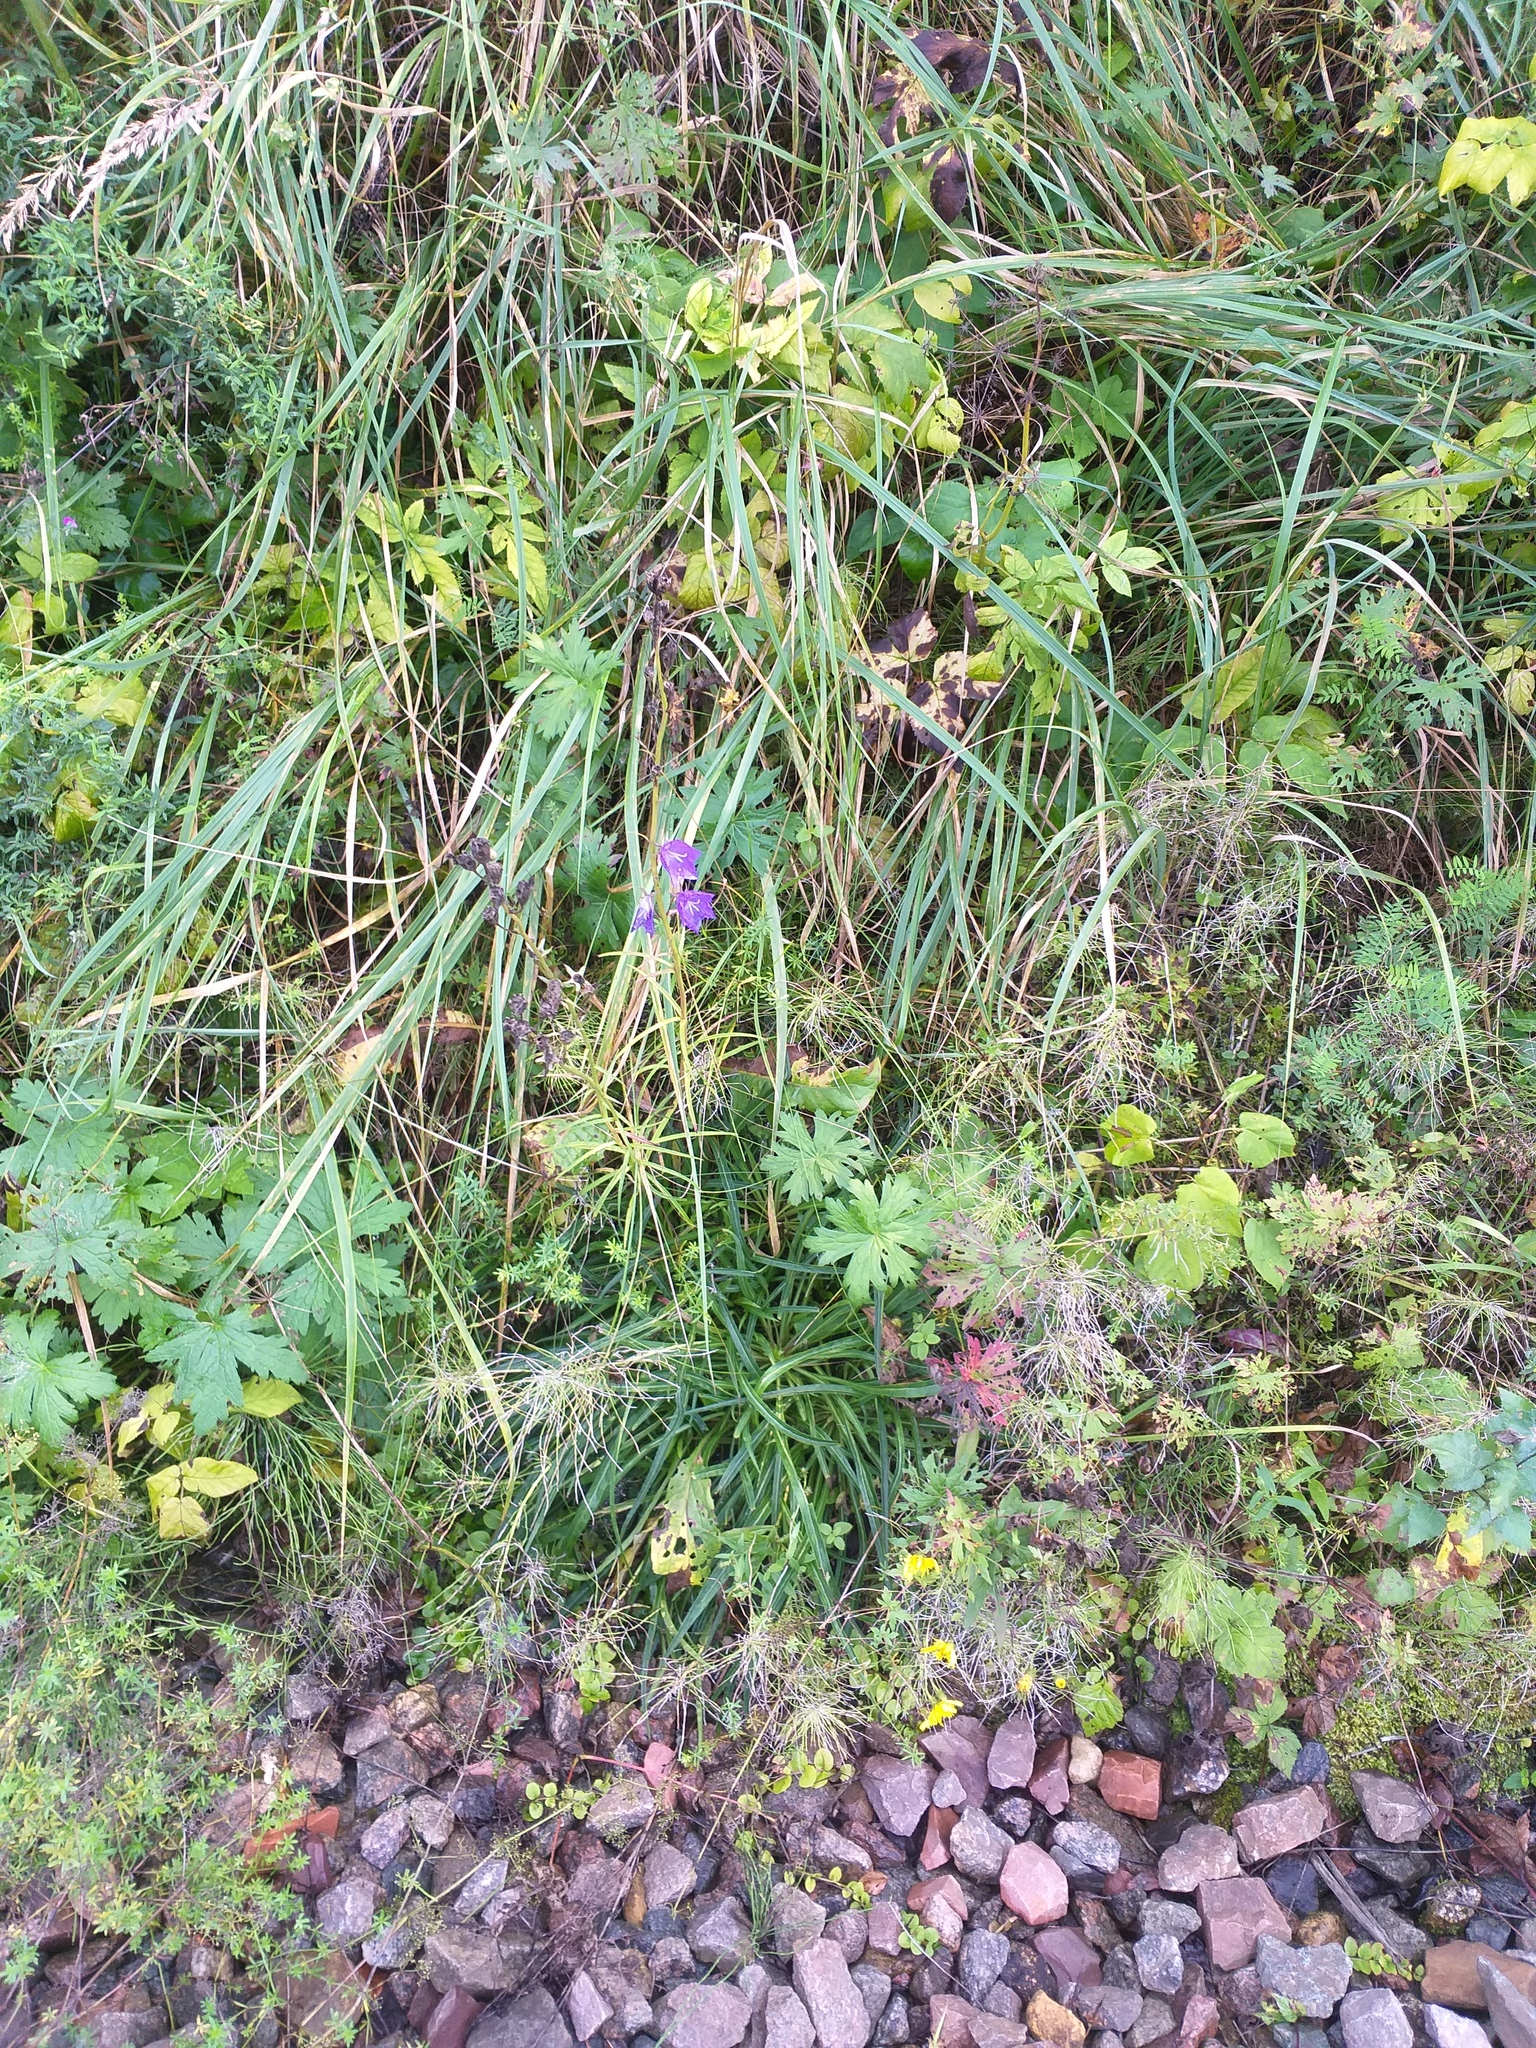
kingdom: Plantae
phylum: Tracheophyta
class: Magnoliopsida
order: Asterales
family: Campanulaceae
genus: Campanula
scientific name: Campanula persicifolia
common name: Peach-leaved bellflower
